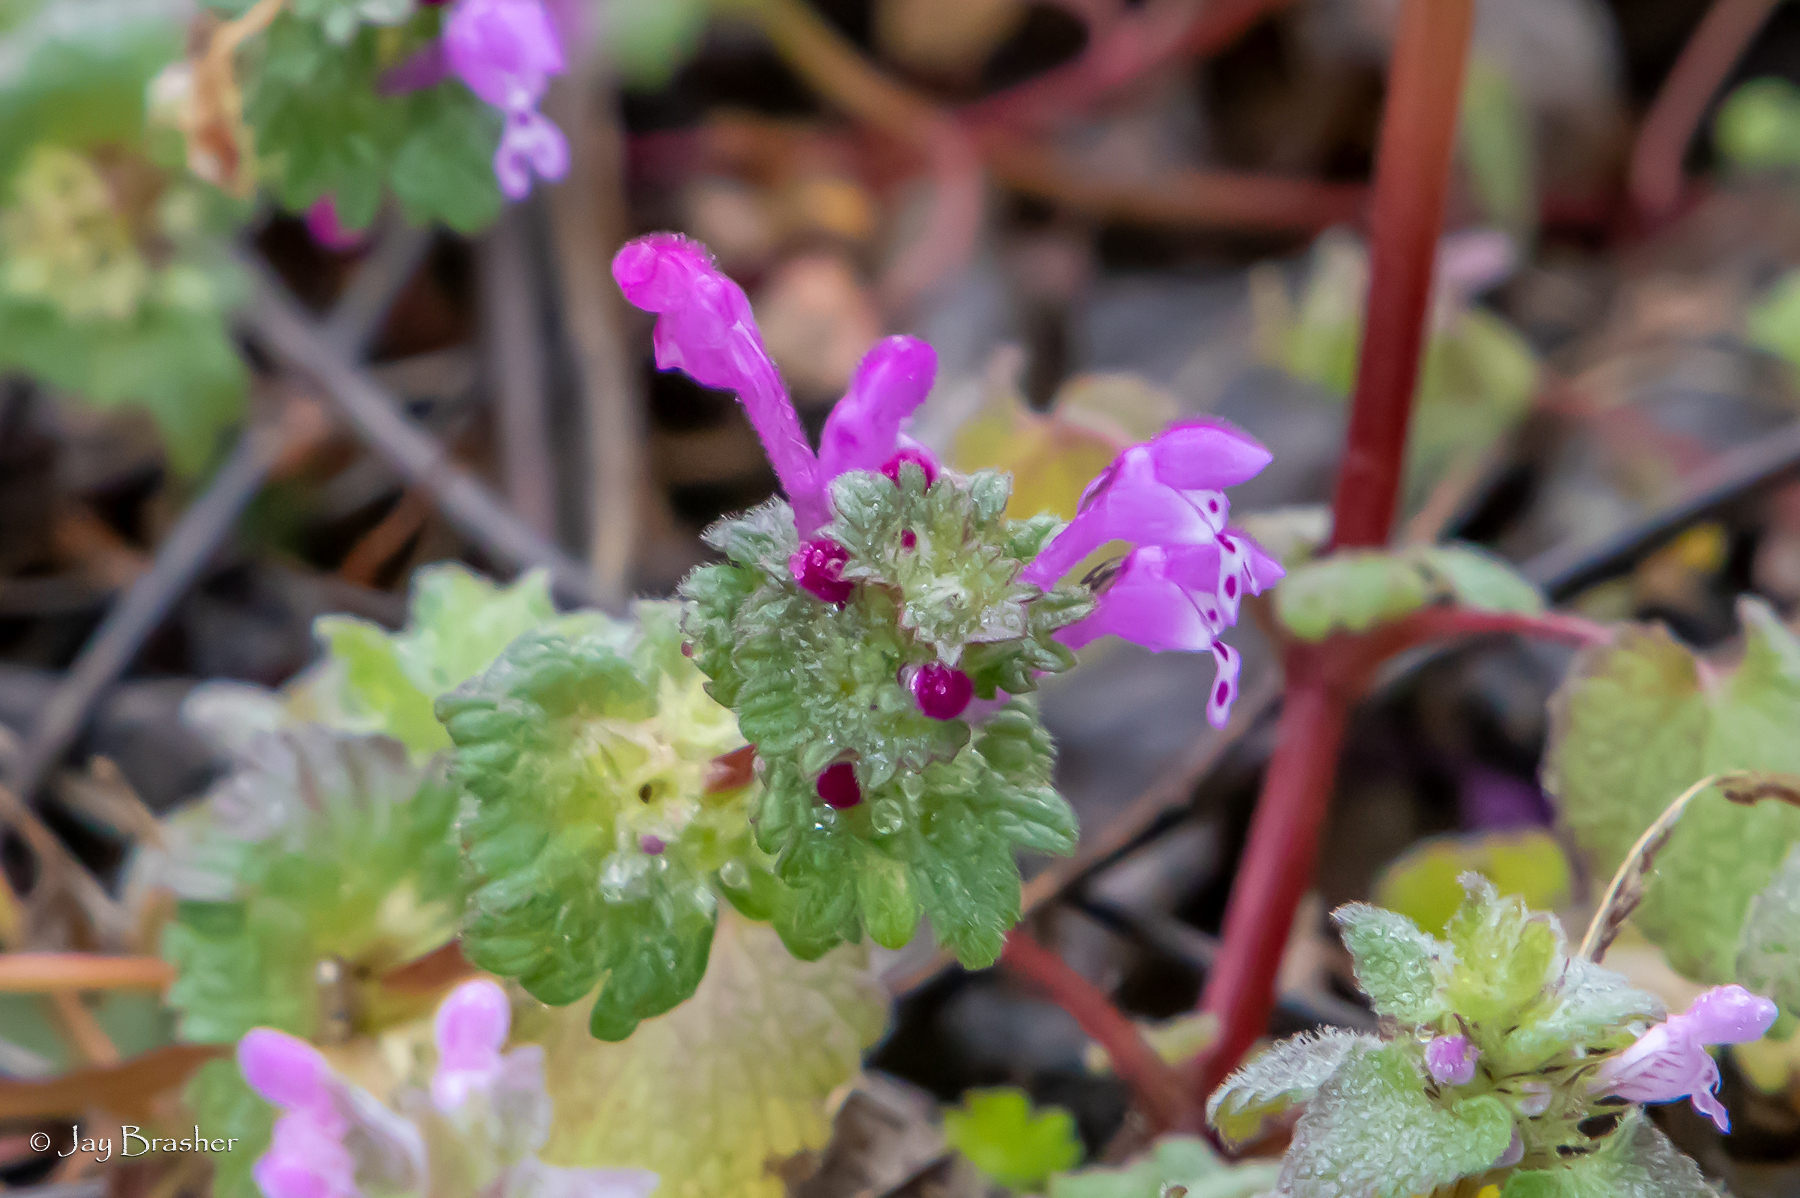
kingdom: Plantae
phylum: Tracheophyta
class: Magnoliopsida
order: Lamiales
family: Lamiaceae
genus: Lamium
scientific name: Lamium amplexicaule
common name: Henbit dead-nettle
